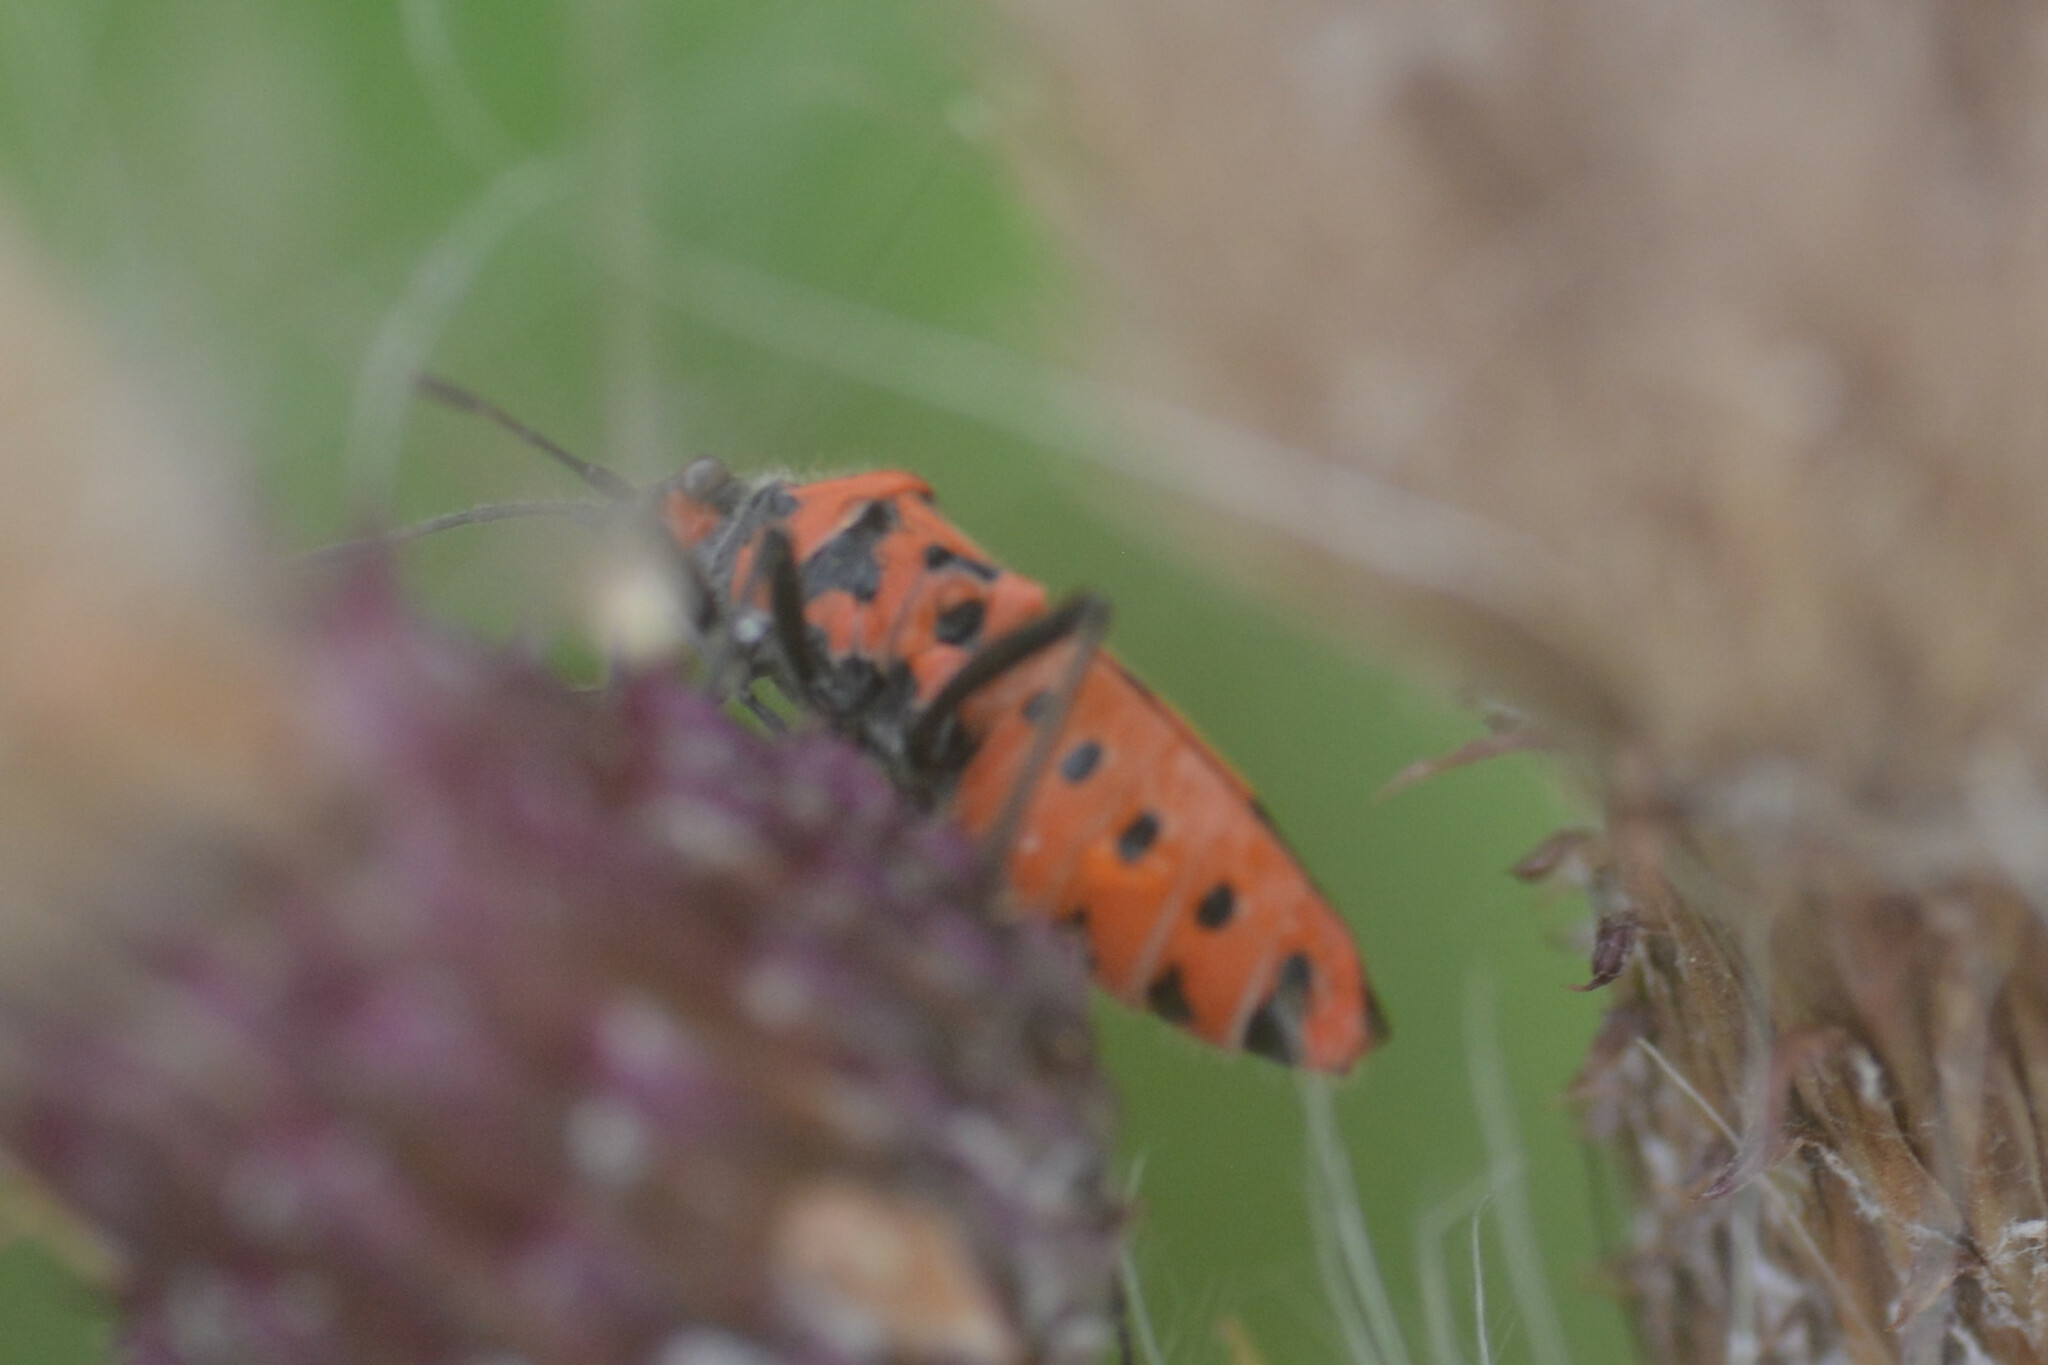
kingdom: Animalia
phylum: Arthropoda
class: Insecta
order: Hemiptera
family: Rhopalidae
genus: Corizus
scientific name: Corizus hyoscyami
